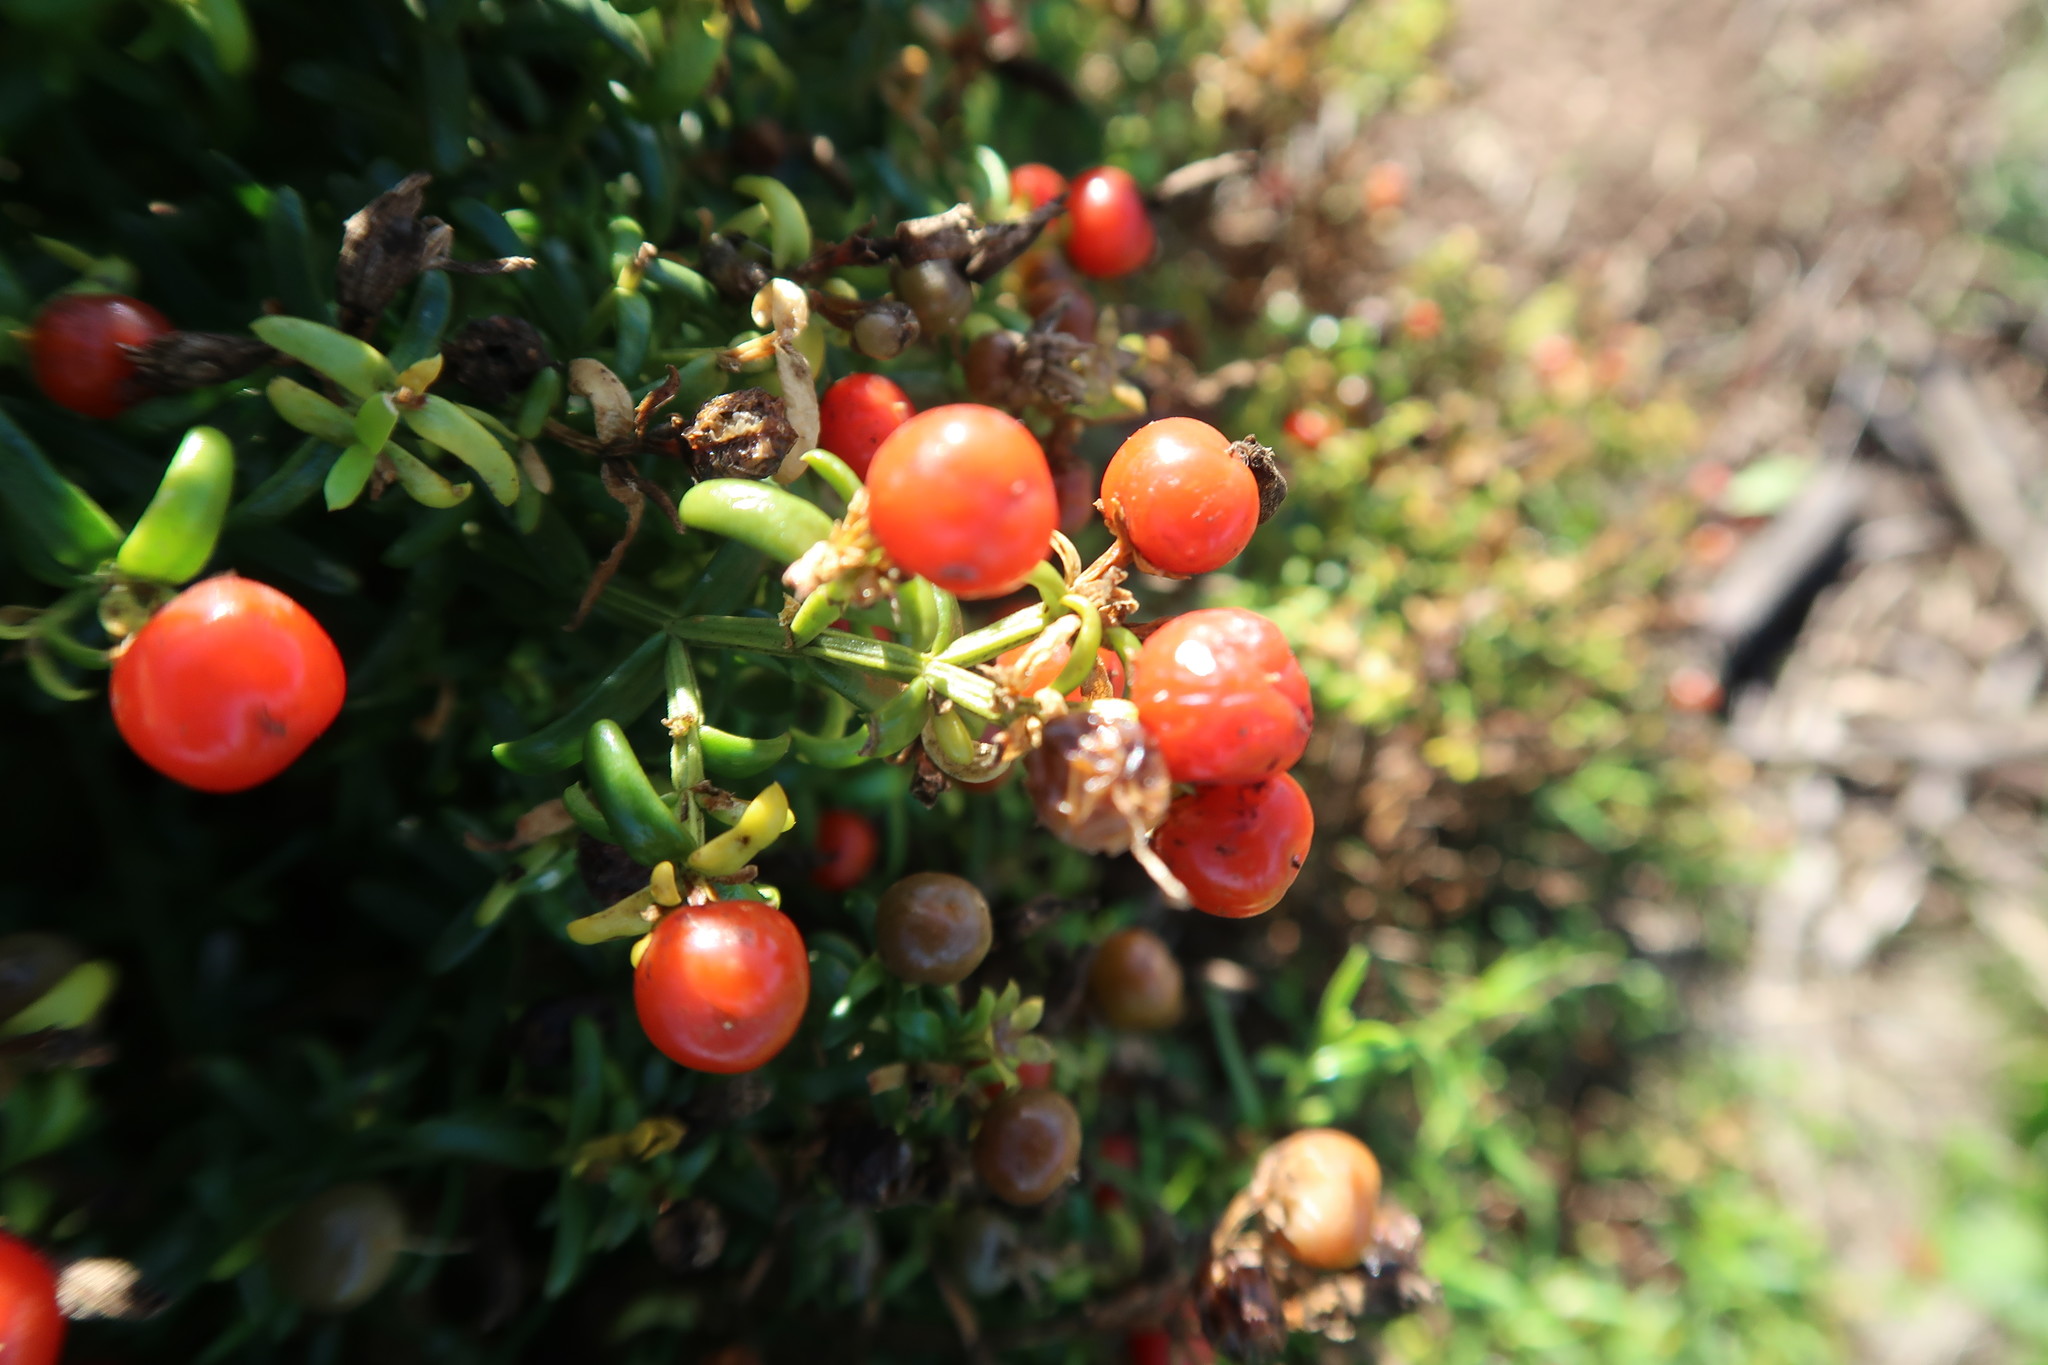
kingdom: Plantae
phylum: Tracheophyta
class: Magnoliopsida
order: Gentianales
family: Gentianaceae
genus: Chironia
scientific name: Chironia baccifera
